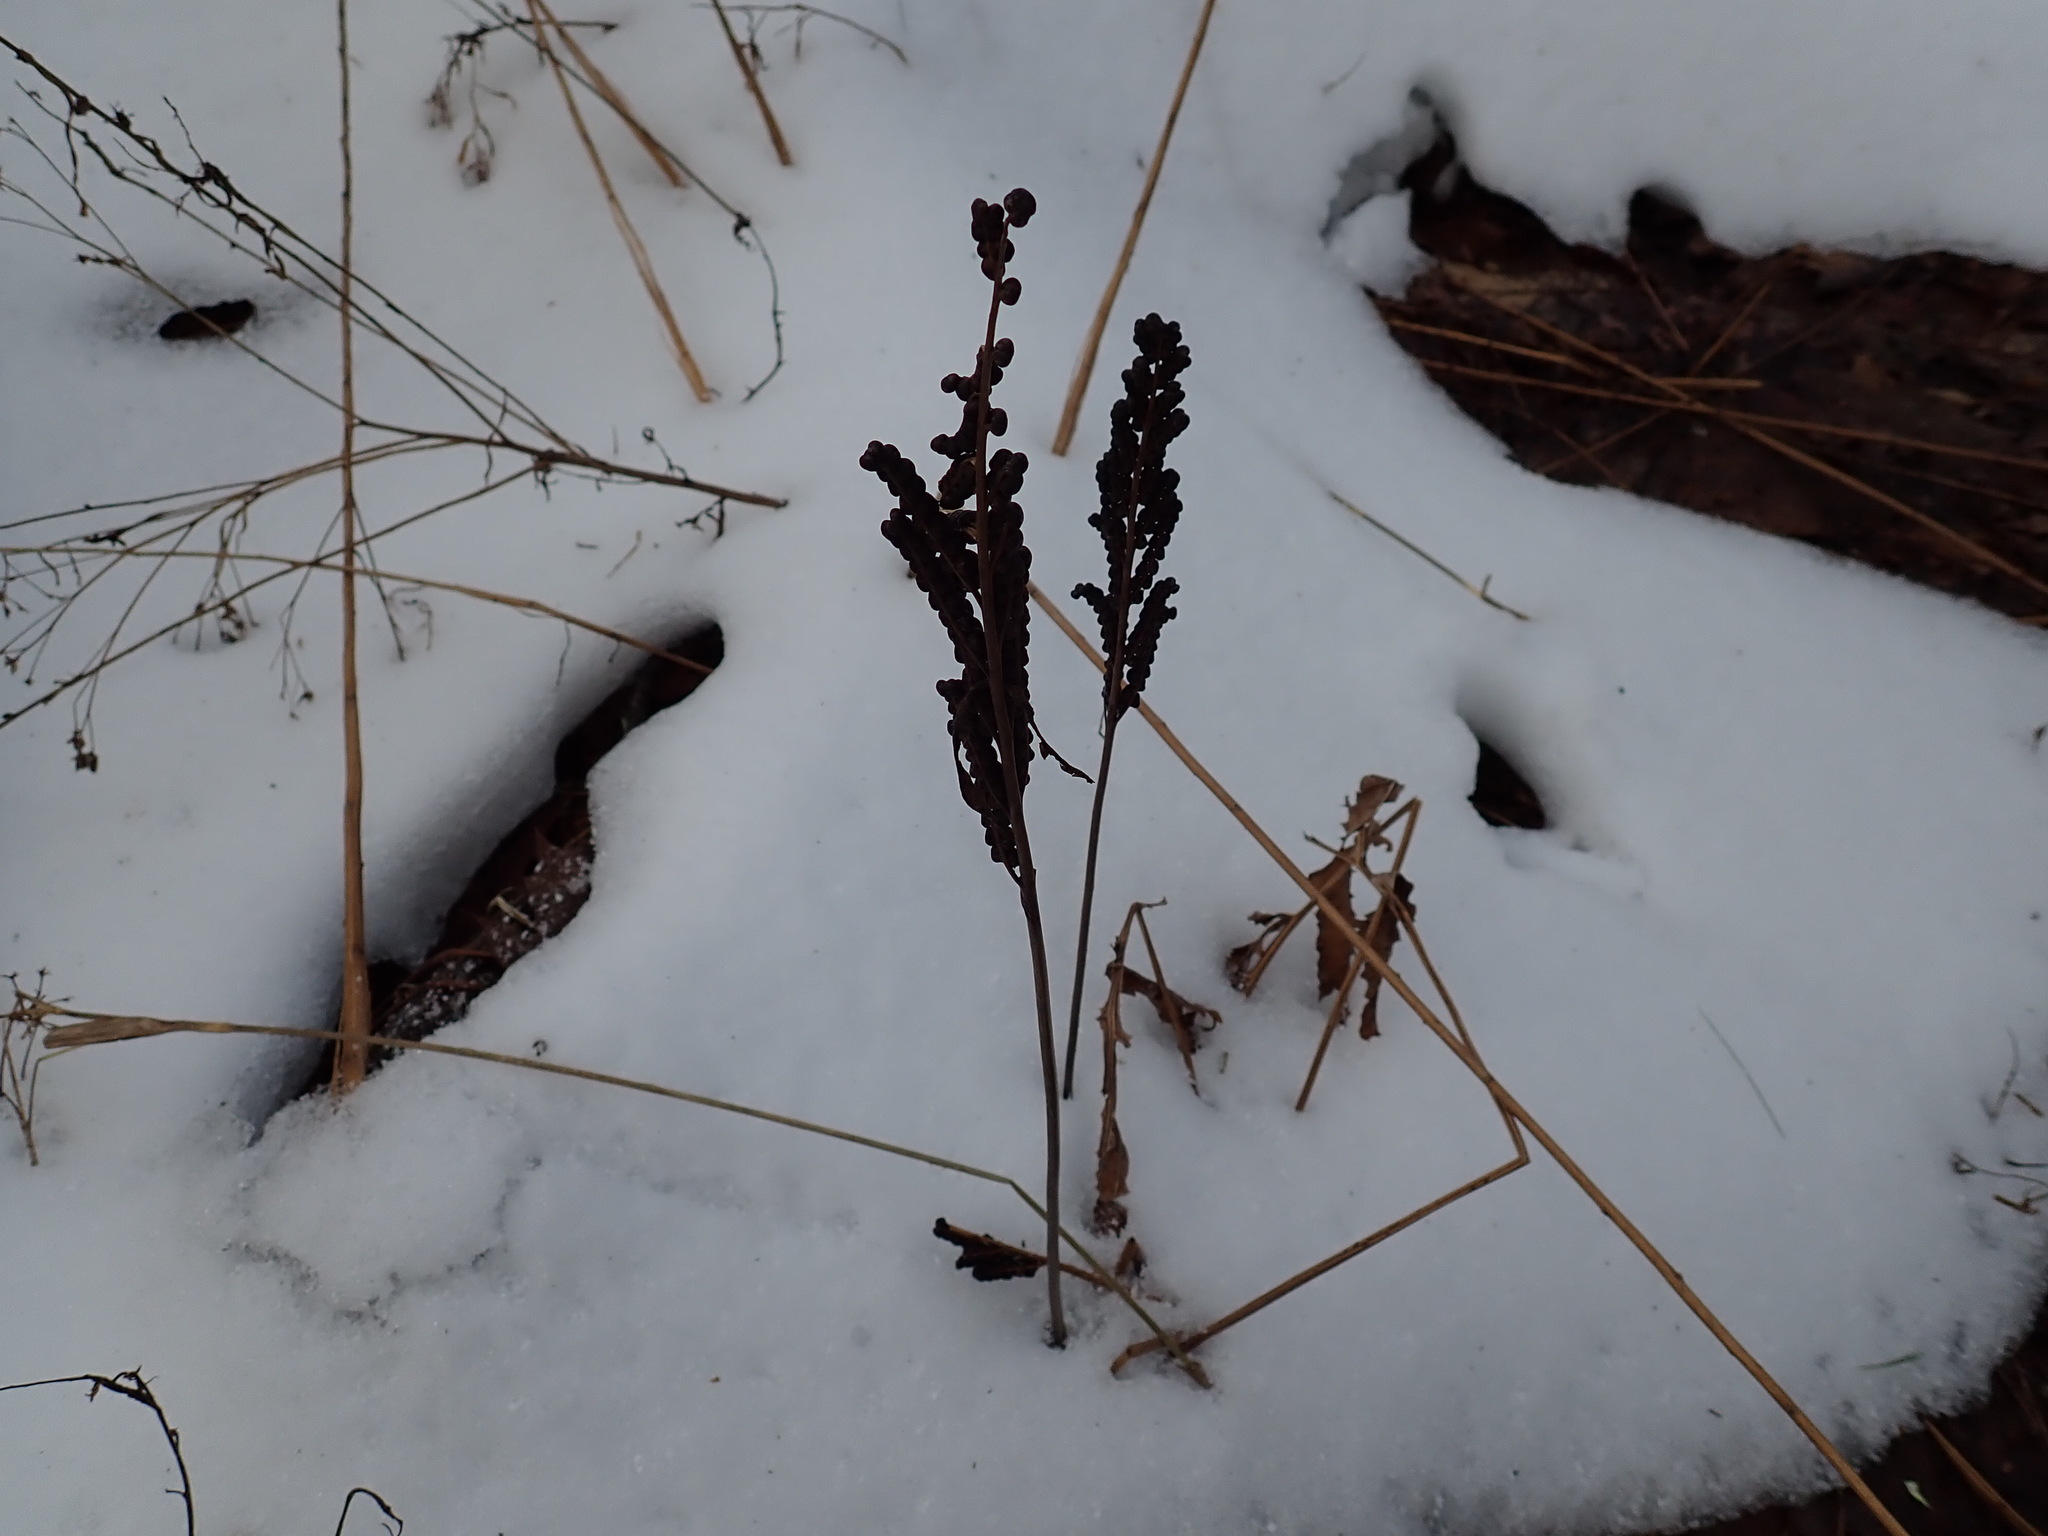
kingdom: Plantae
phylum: Tracheophyta
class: Polypodiopsida
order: Polypodiales
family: Onocleaceae
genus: Onoclea
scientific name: Onoclea sensibilis
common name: Sensitive fern
